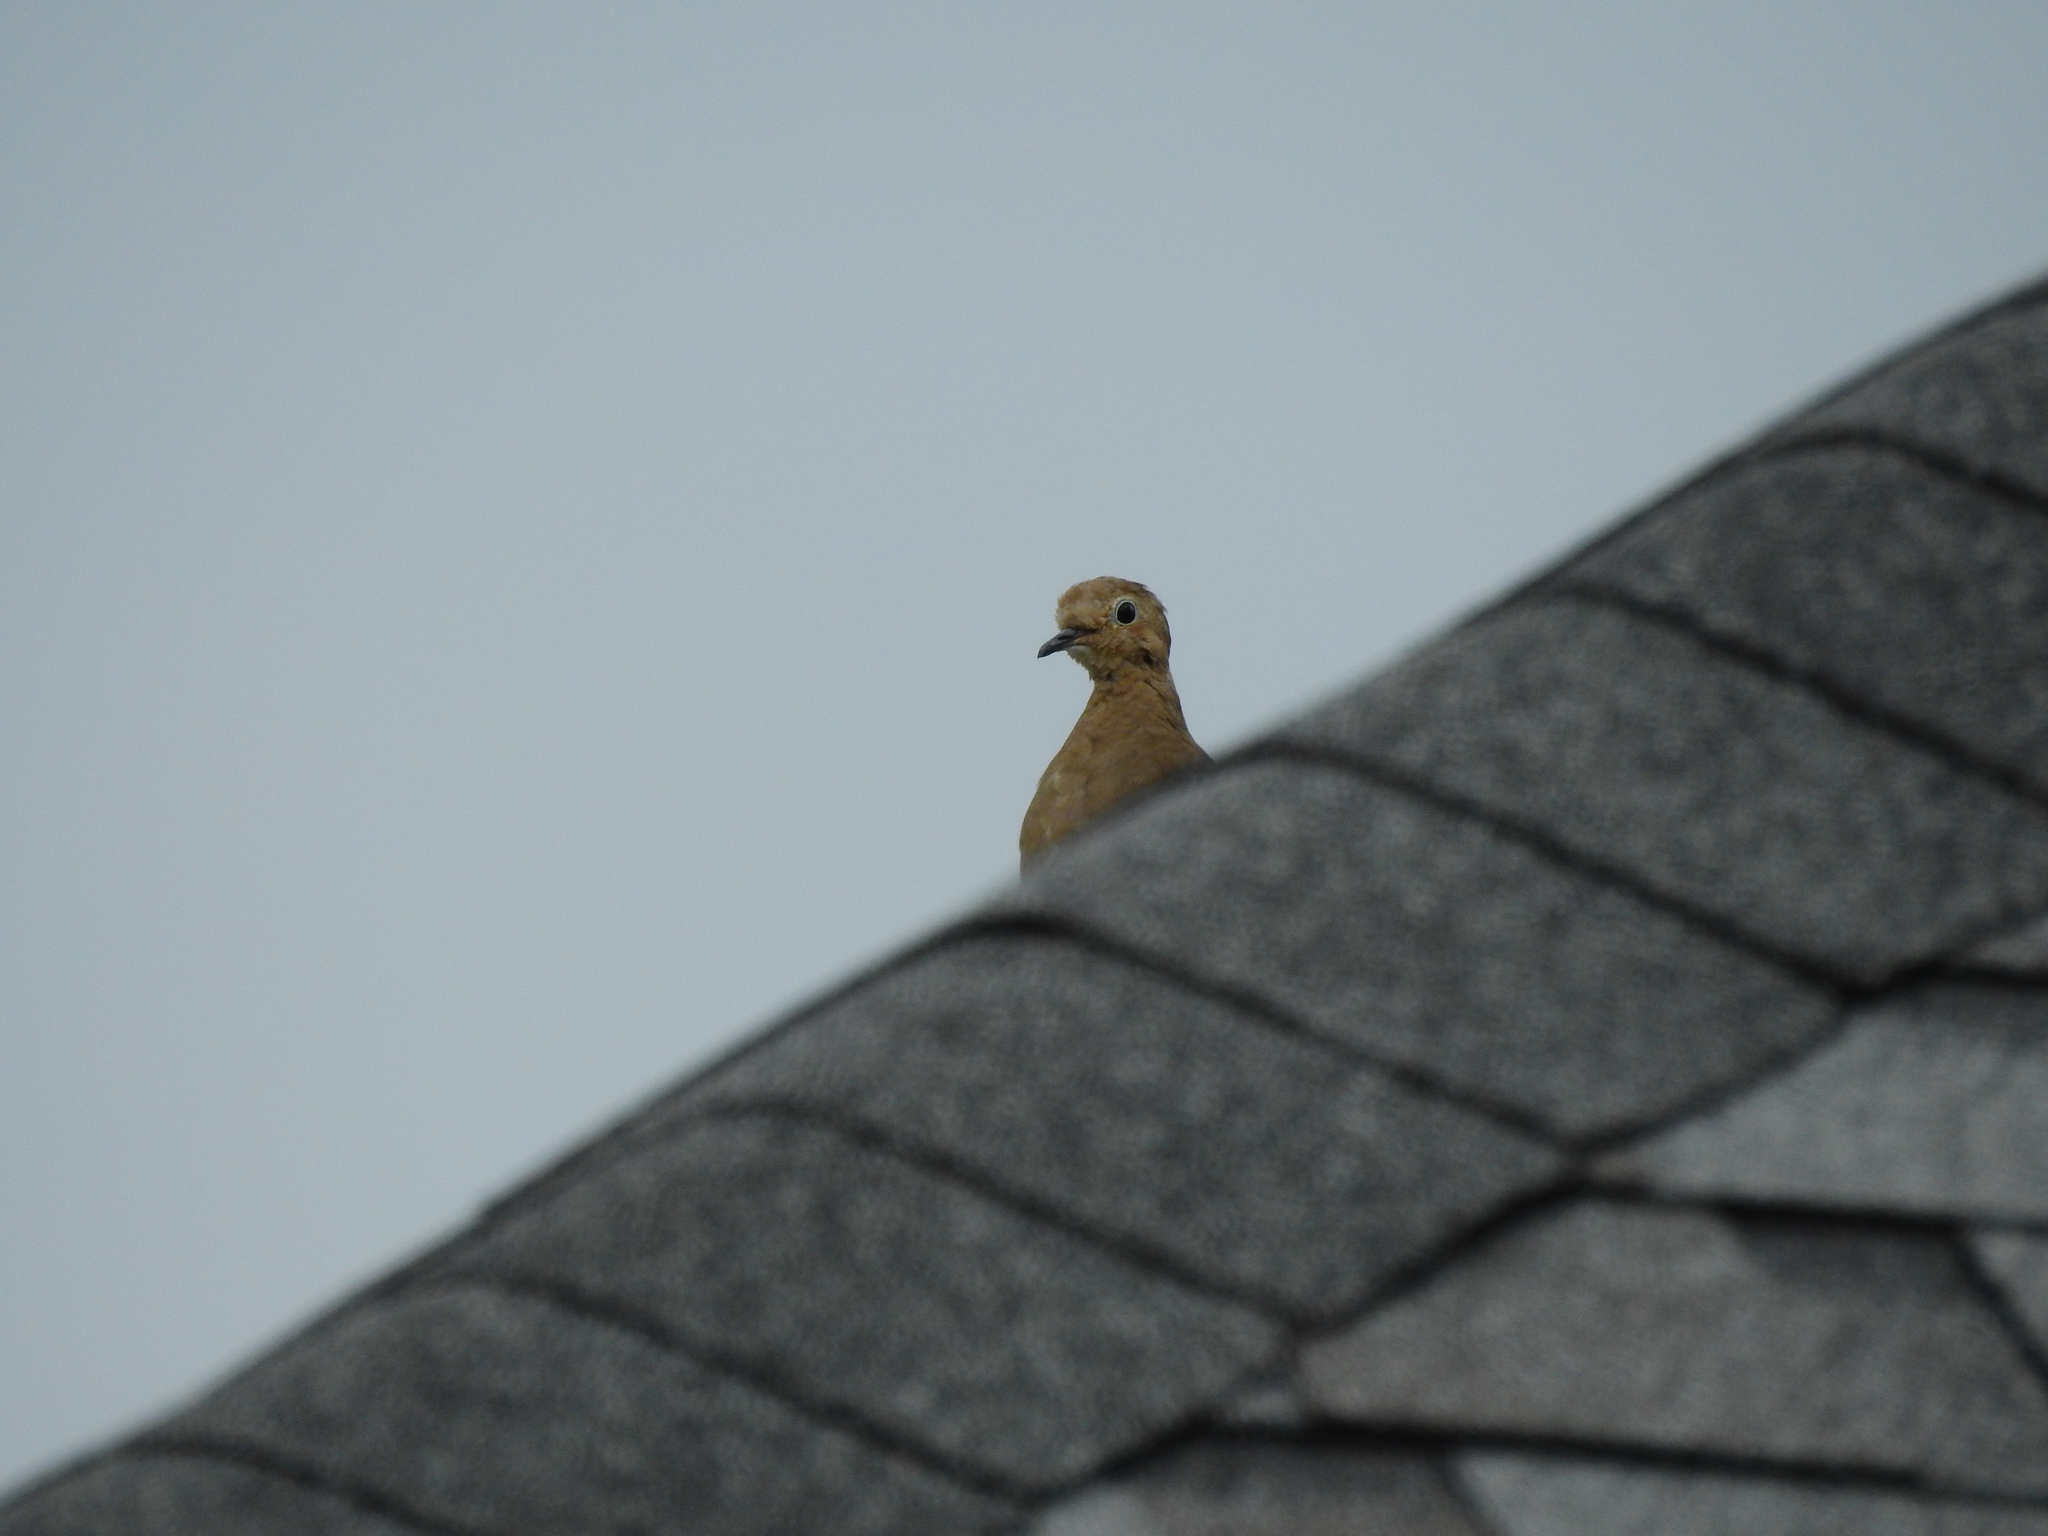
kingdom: Animalia
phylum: Chordata
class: Aves
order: Columbiformes
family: Columbidae
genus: Zenaida
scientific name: Zenaida macroura
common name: Mourning dove
